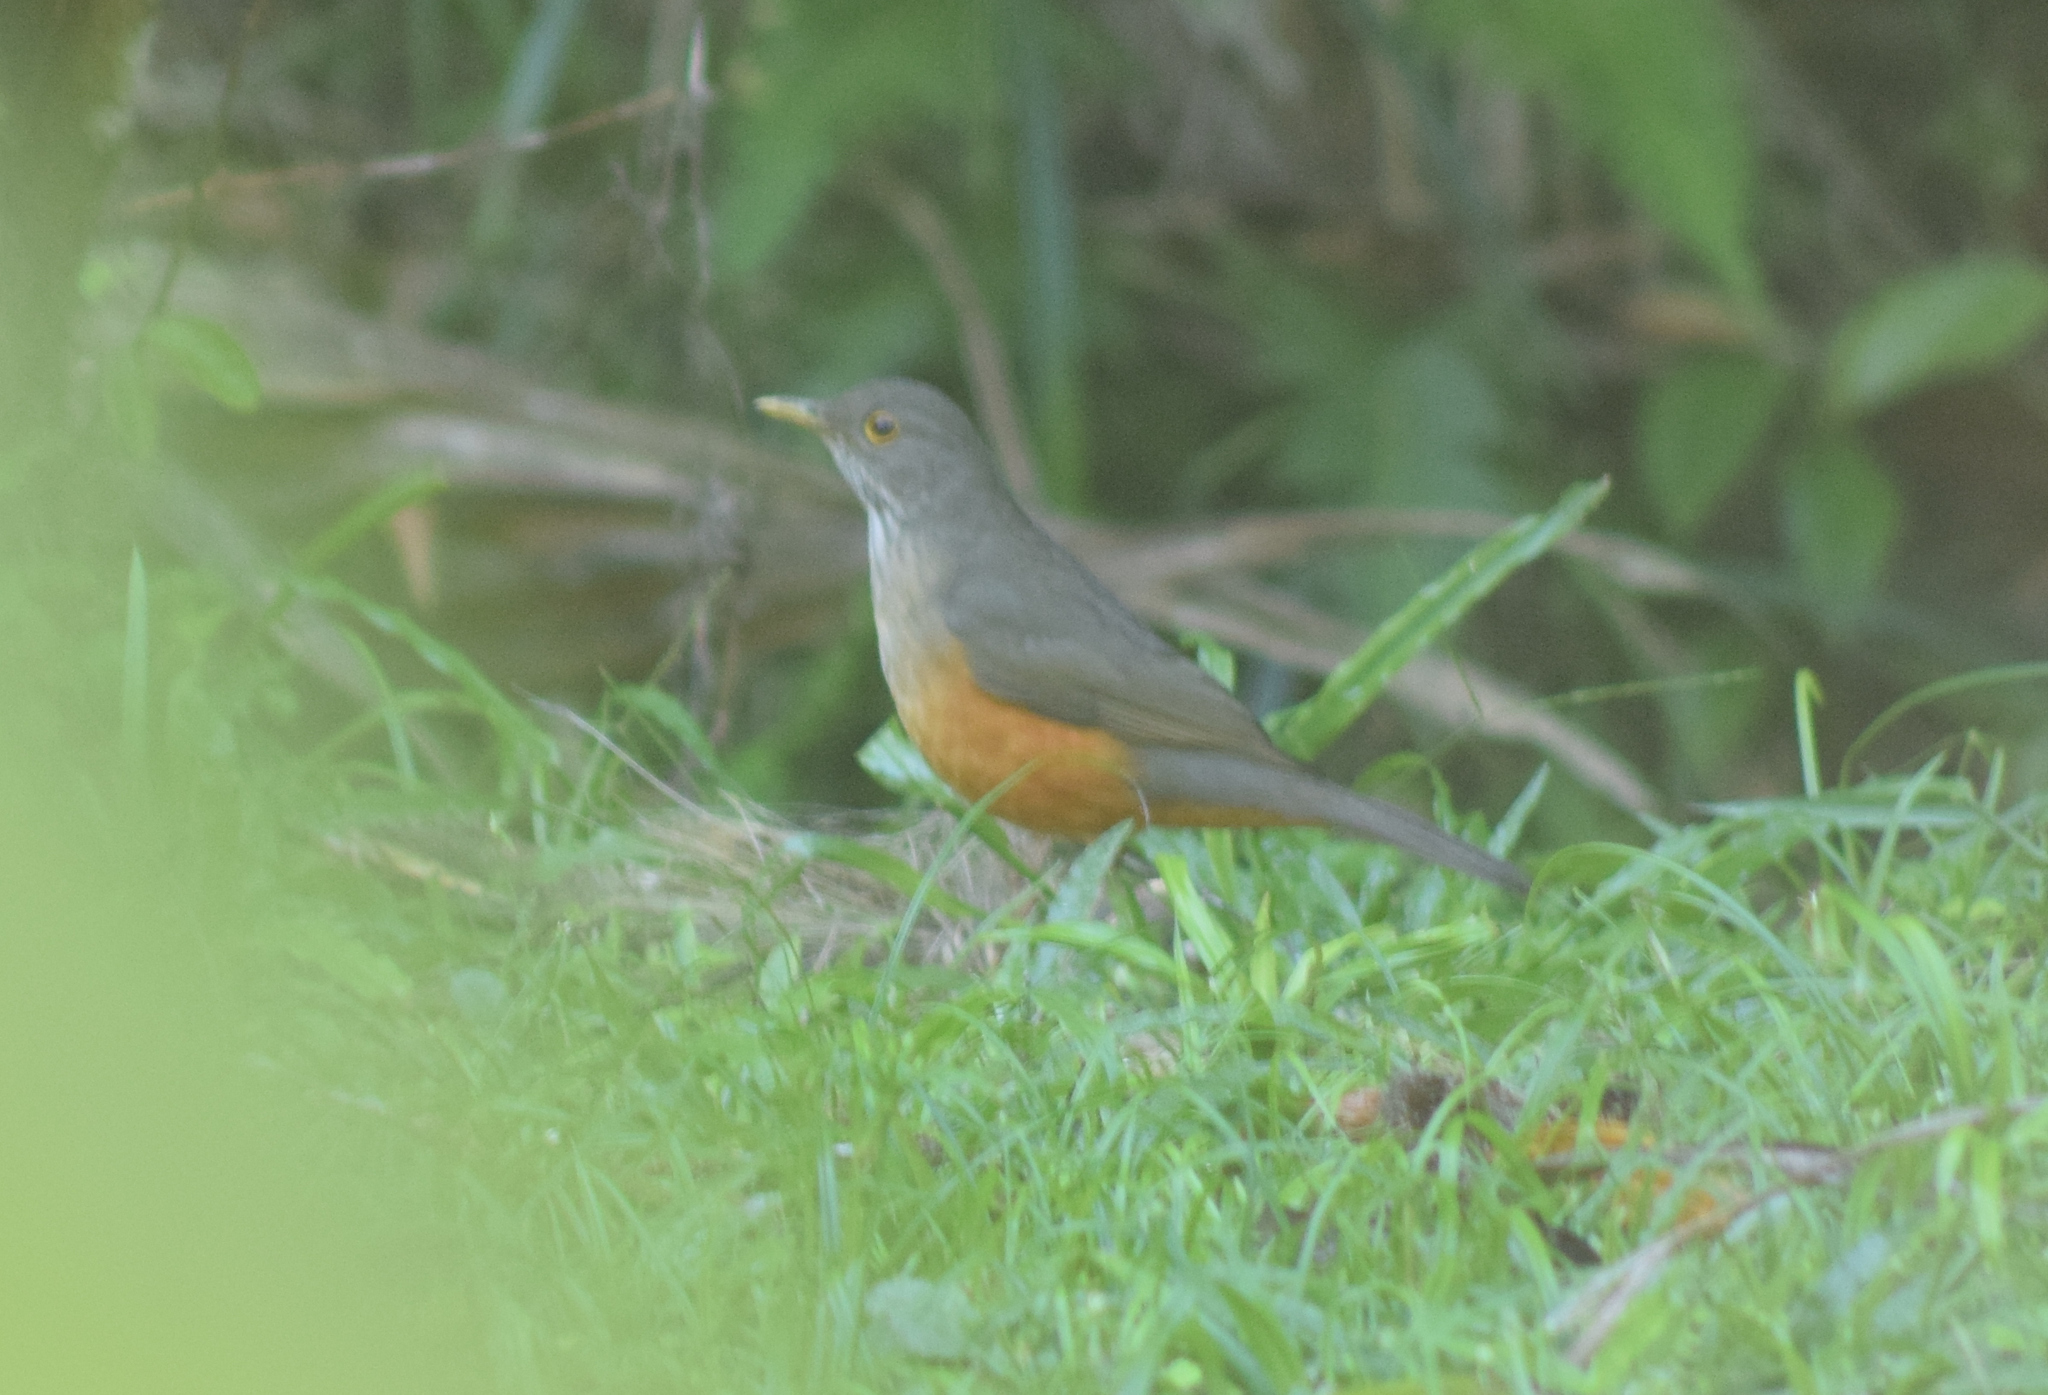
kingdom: Animalia
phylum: Chordata
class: Aves
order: Passeriformes
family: Turdidae
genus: Turdus
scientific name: Turdus rufiventris
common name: Rufous-bellied thrush
